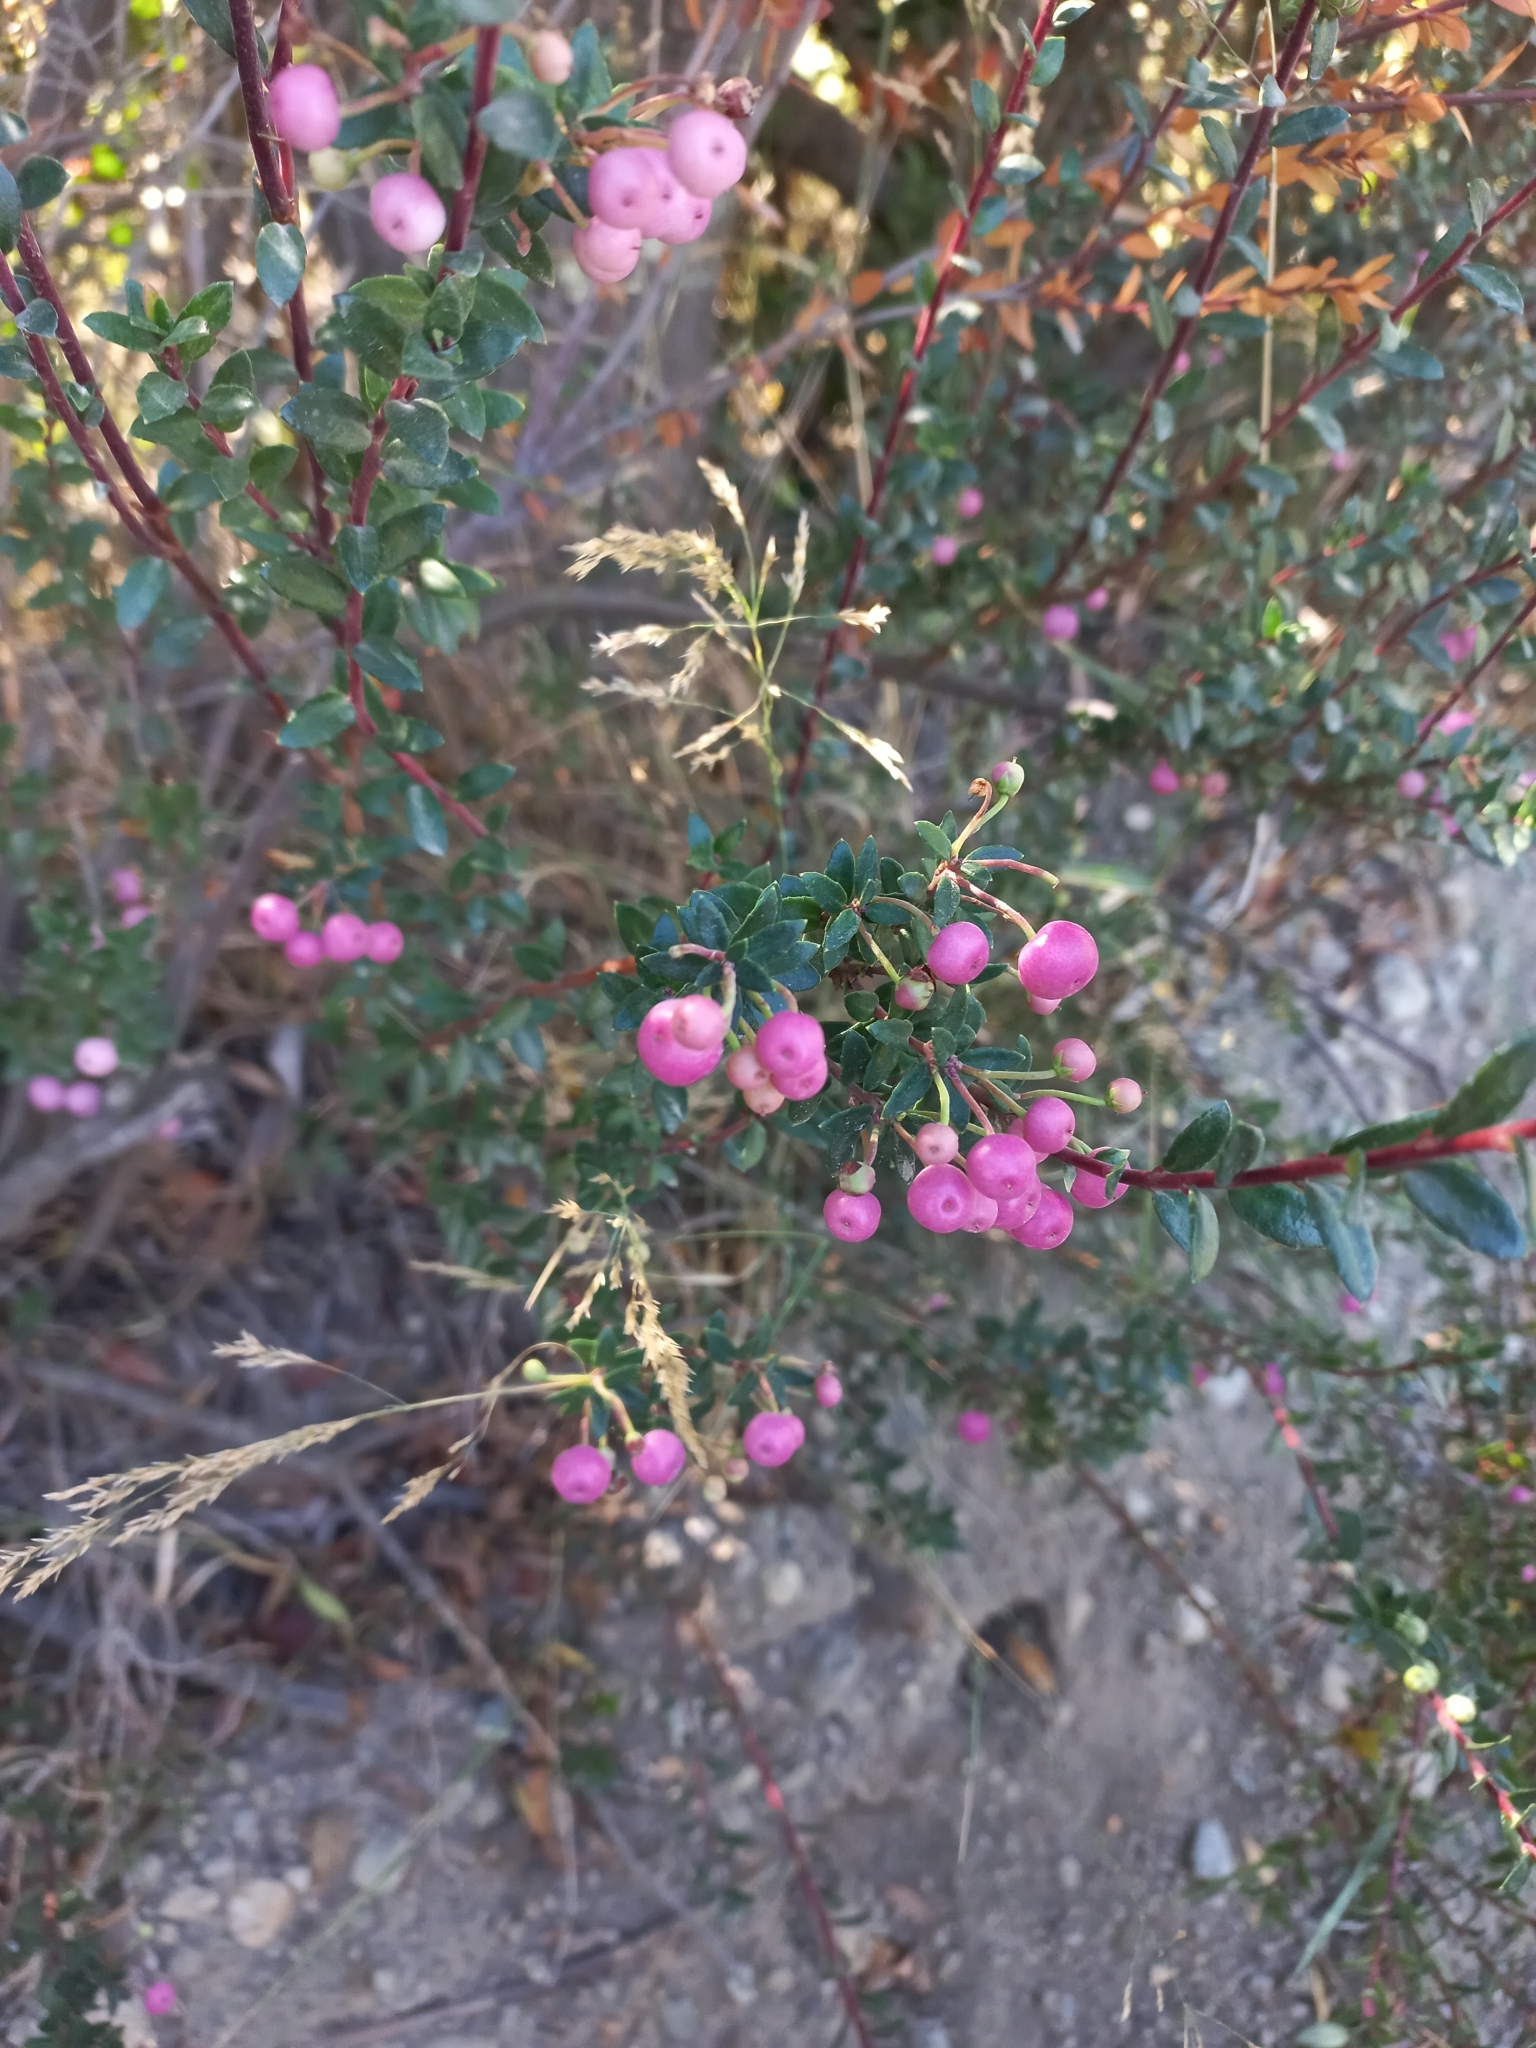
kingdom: Plantae
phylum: Tracheophyta
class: Magnoliopsida
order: Ericales
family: Ericaceae
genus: Gaultheria
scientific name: Gaultheria mucronata
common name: Prickly heath
